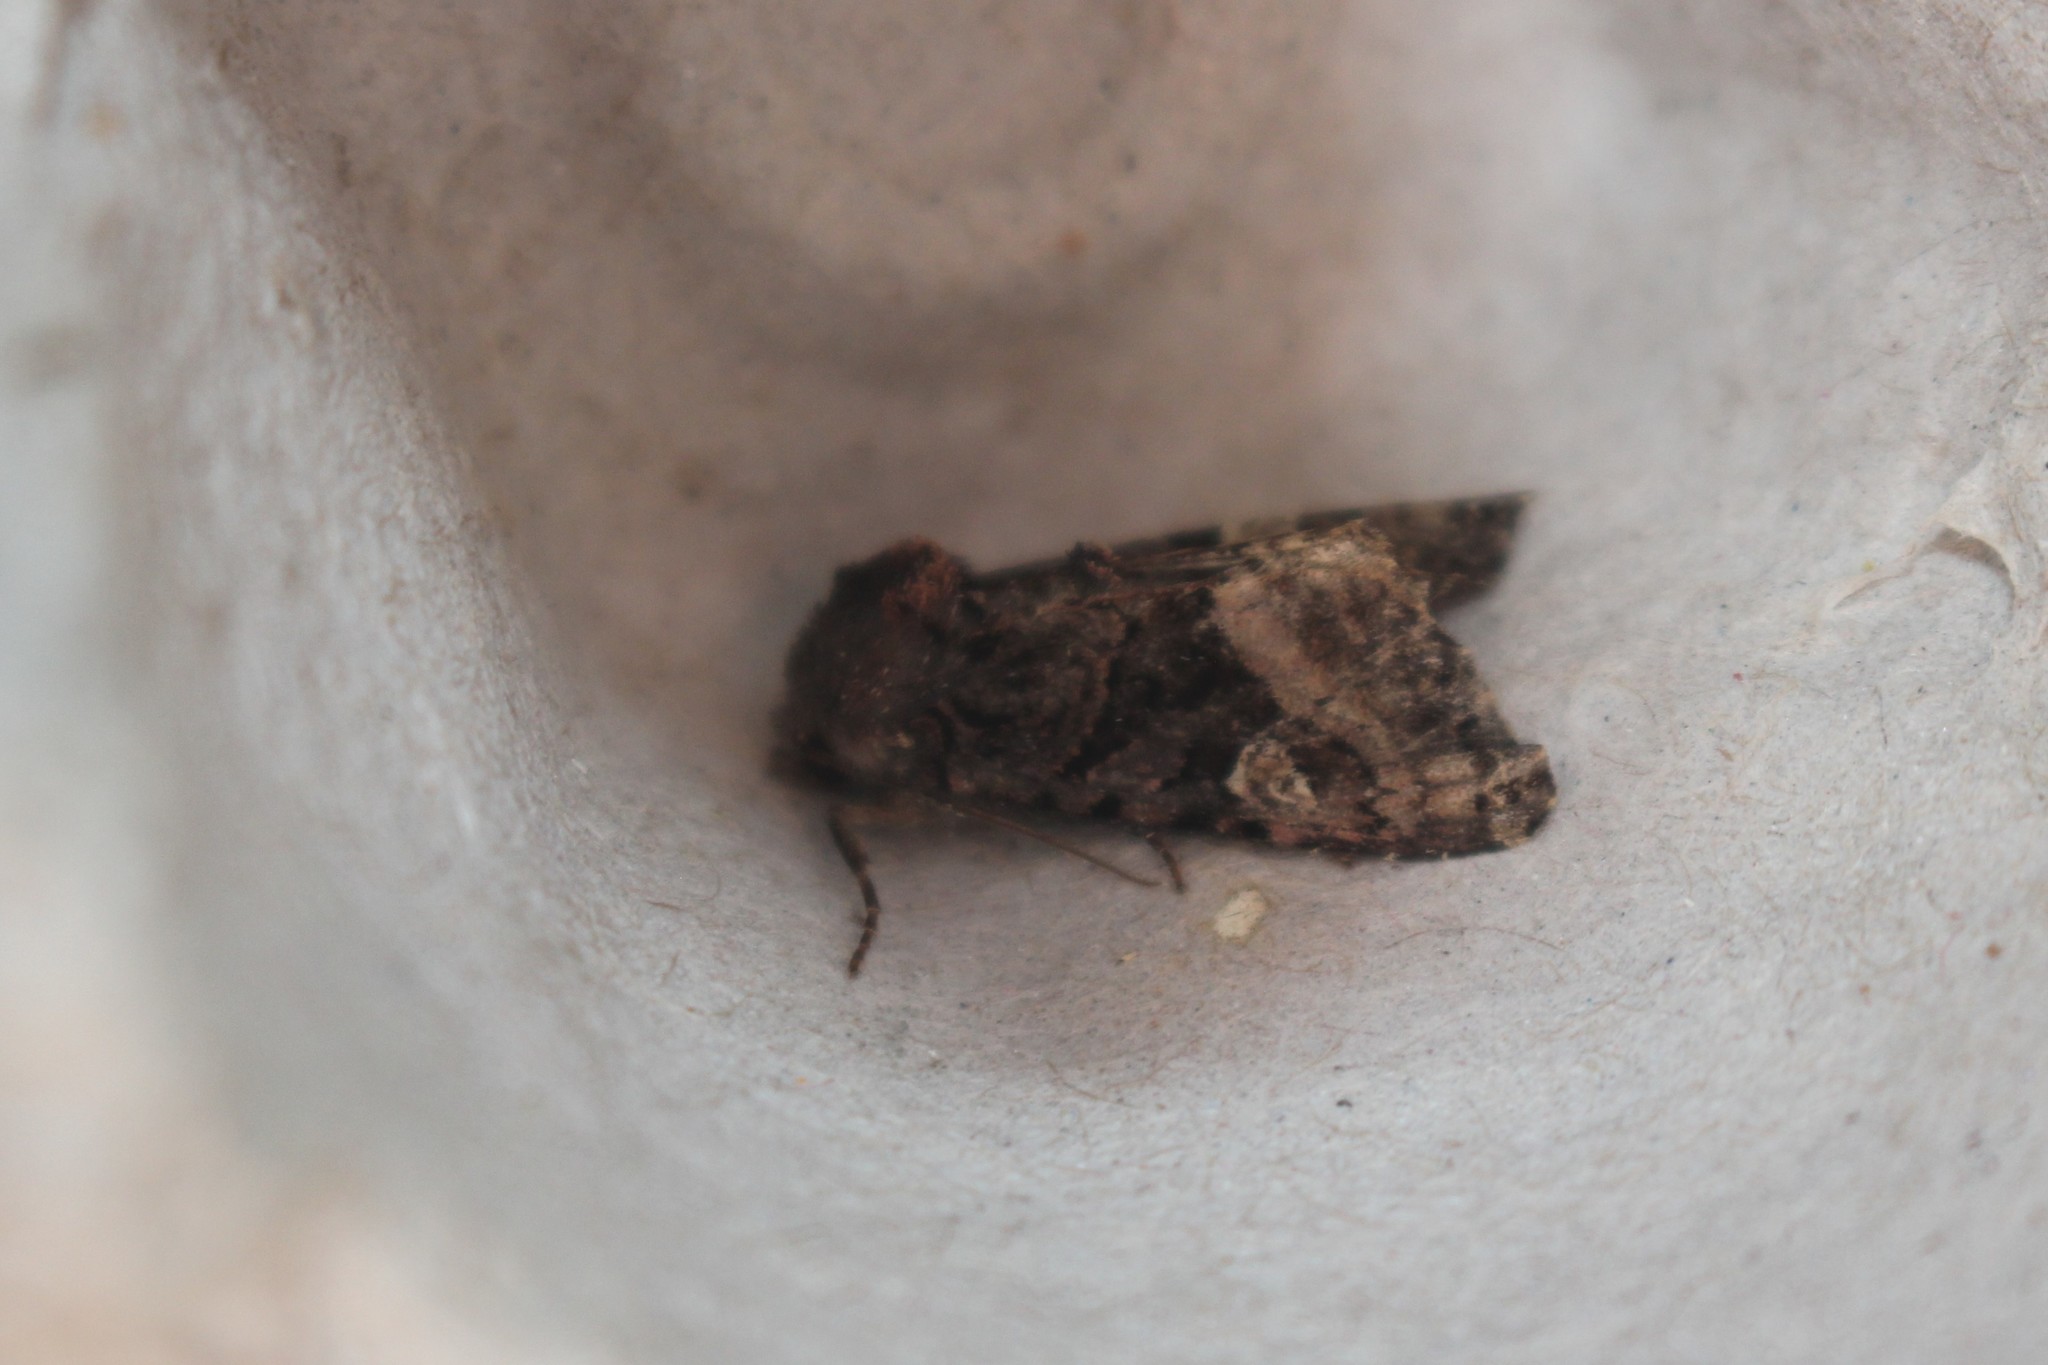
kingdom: Animalia
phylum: Arthropoda
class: Insecta
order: Lepidoptera
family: Noctuidae
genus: Euplexia
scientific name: Euplexia benesimilis
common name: American angle shades
